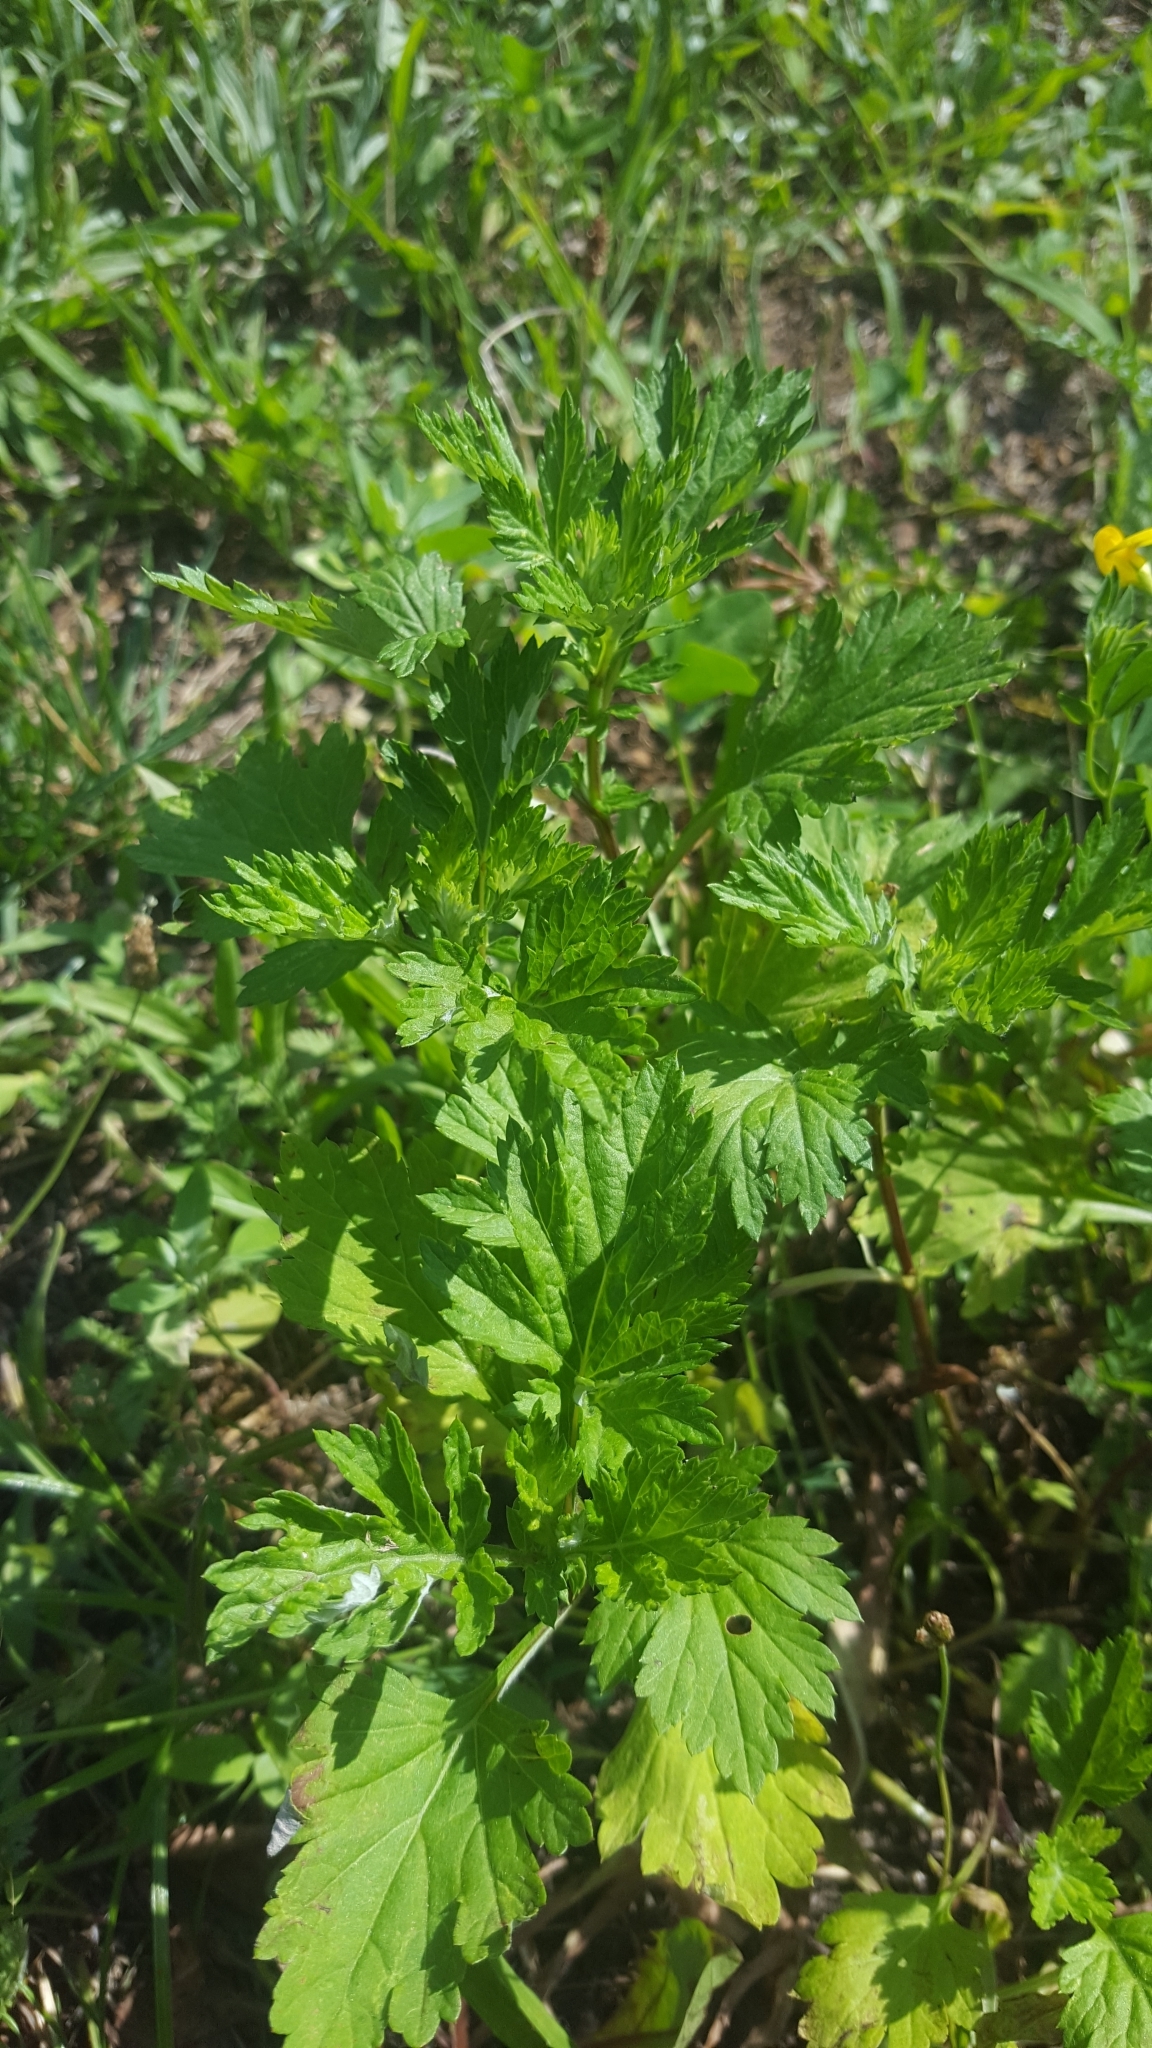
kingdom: Plantae
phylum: Tracheophyta
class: Magnoliopsida
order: Asterales
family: Asteraceae
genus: Artemisia
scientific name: Artemisia vulgaris
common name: Mugwort
